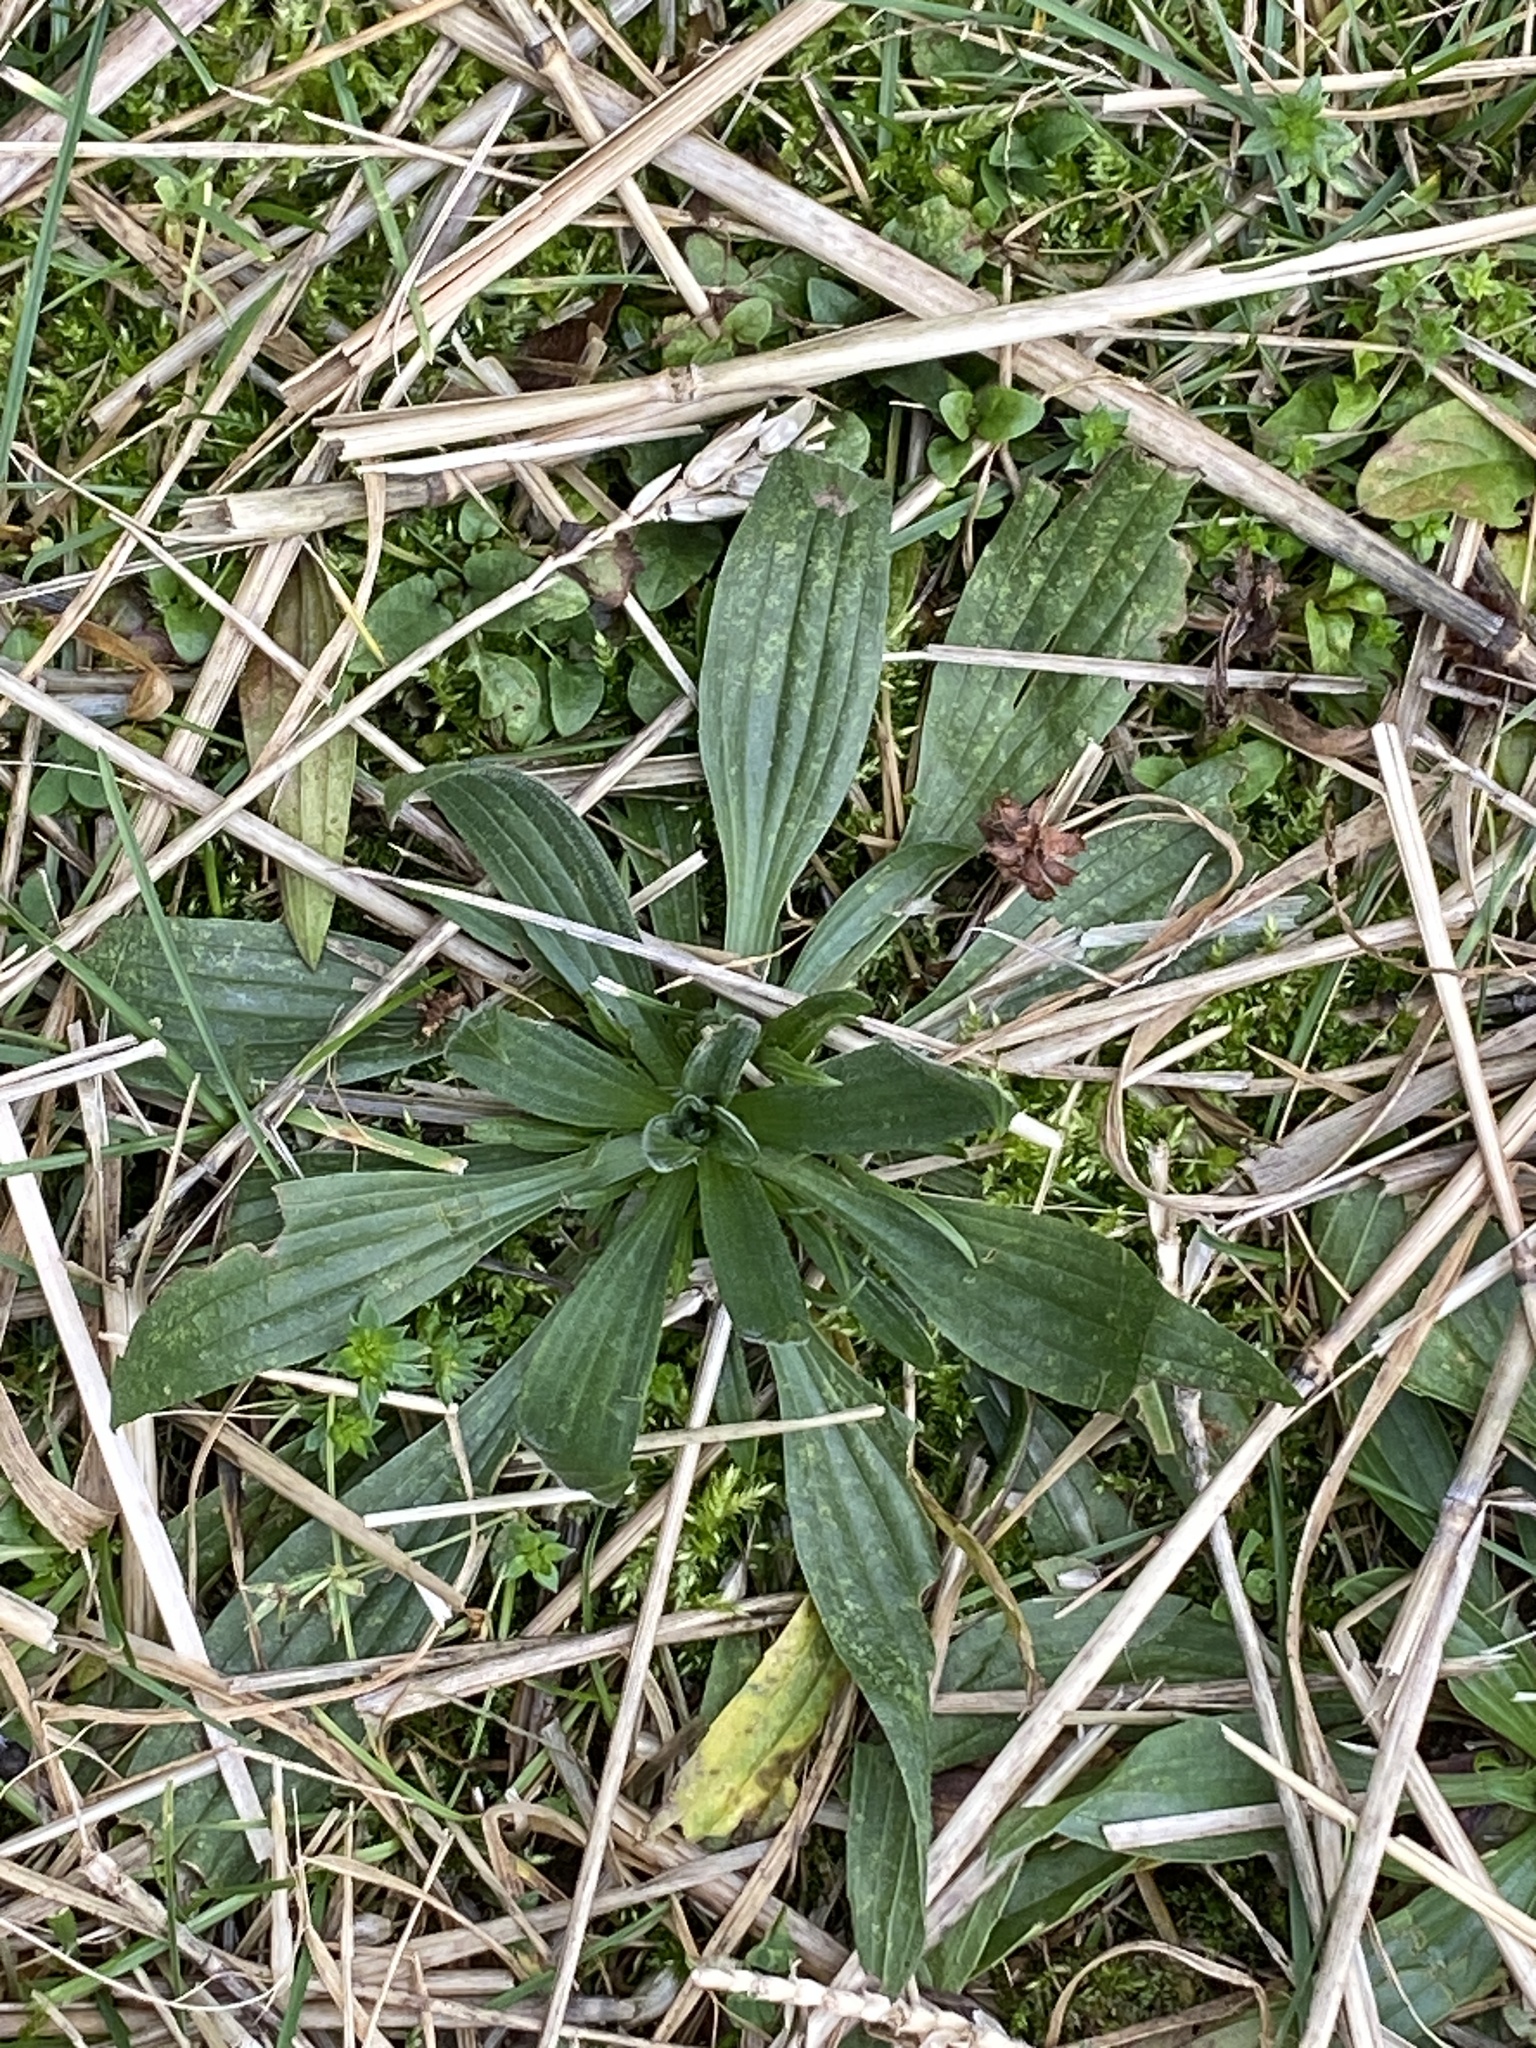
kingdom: Plantae
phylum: Tracheophyta
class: Magnoliopsida
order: Lamiales
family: Plantaginaceae
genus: Plantago
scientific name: Plantago lanceolata
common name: Ribwort plantain
